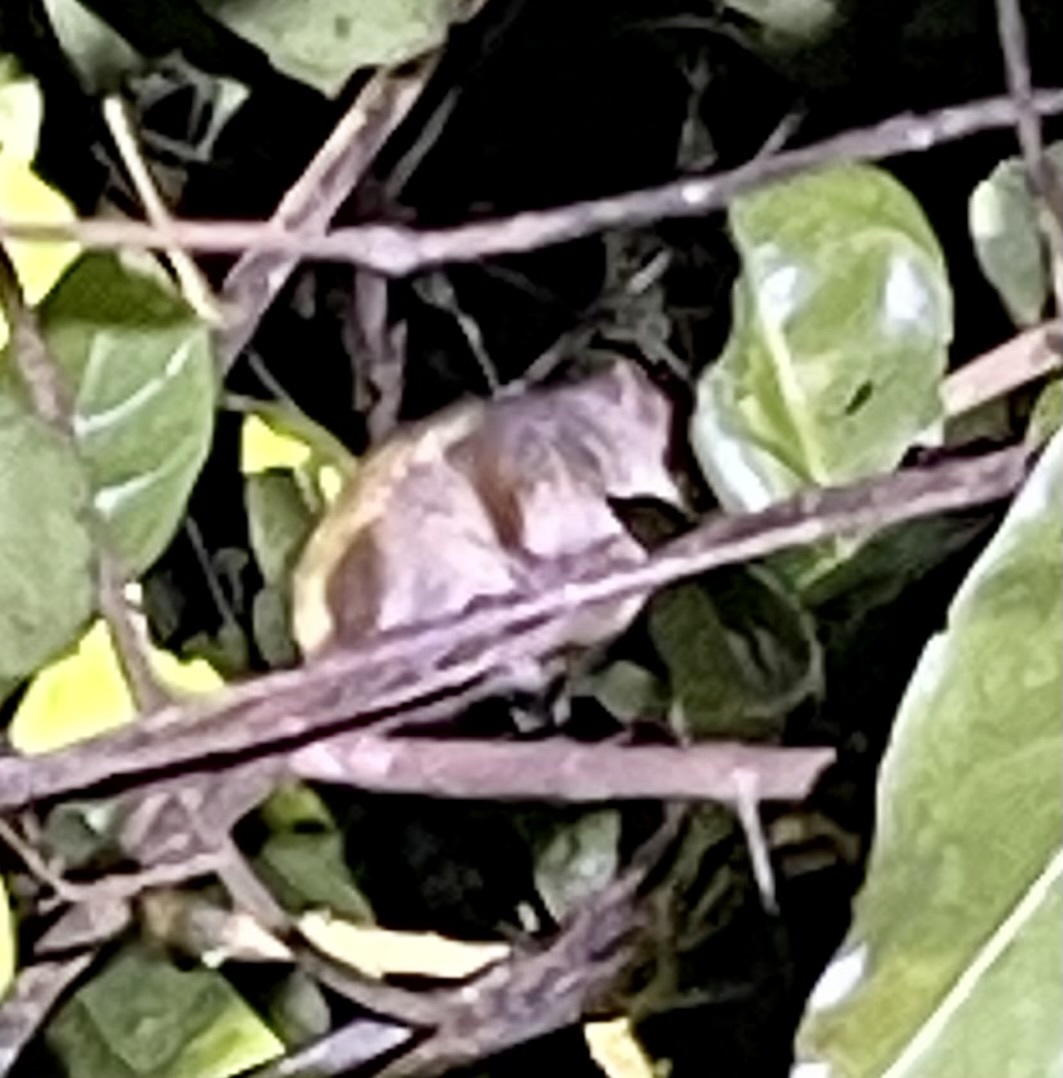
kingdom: Animalia
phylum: Chordata
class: Mammalia
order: Primates
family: Cheirogaleidae
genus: Microcebus
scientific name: Microcebus lehilahytsara
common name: Goodman's mouse lemur
